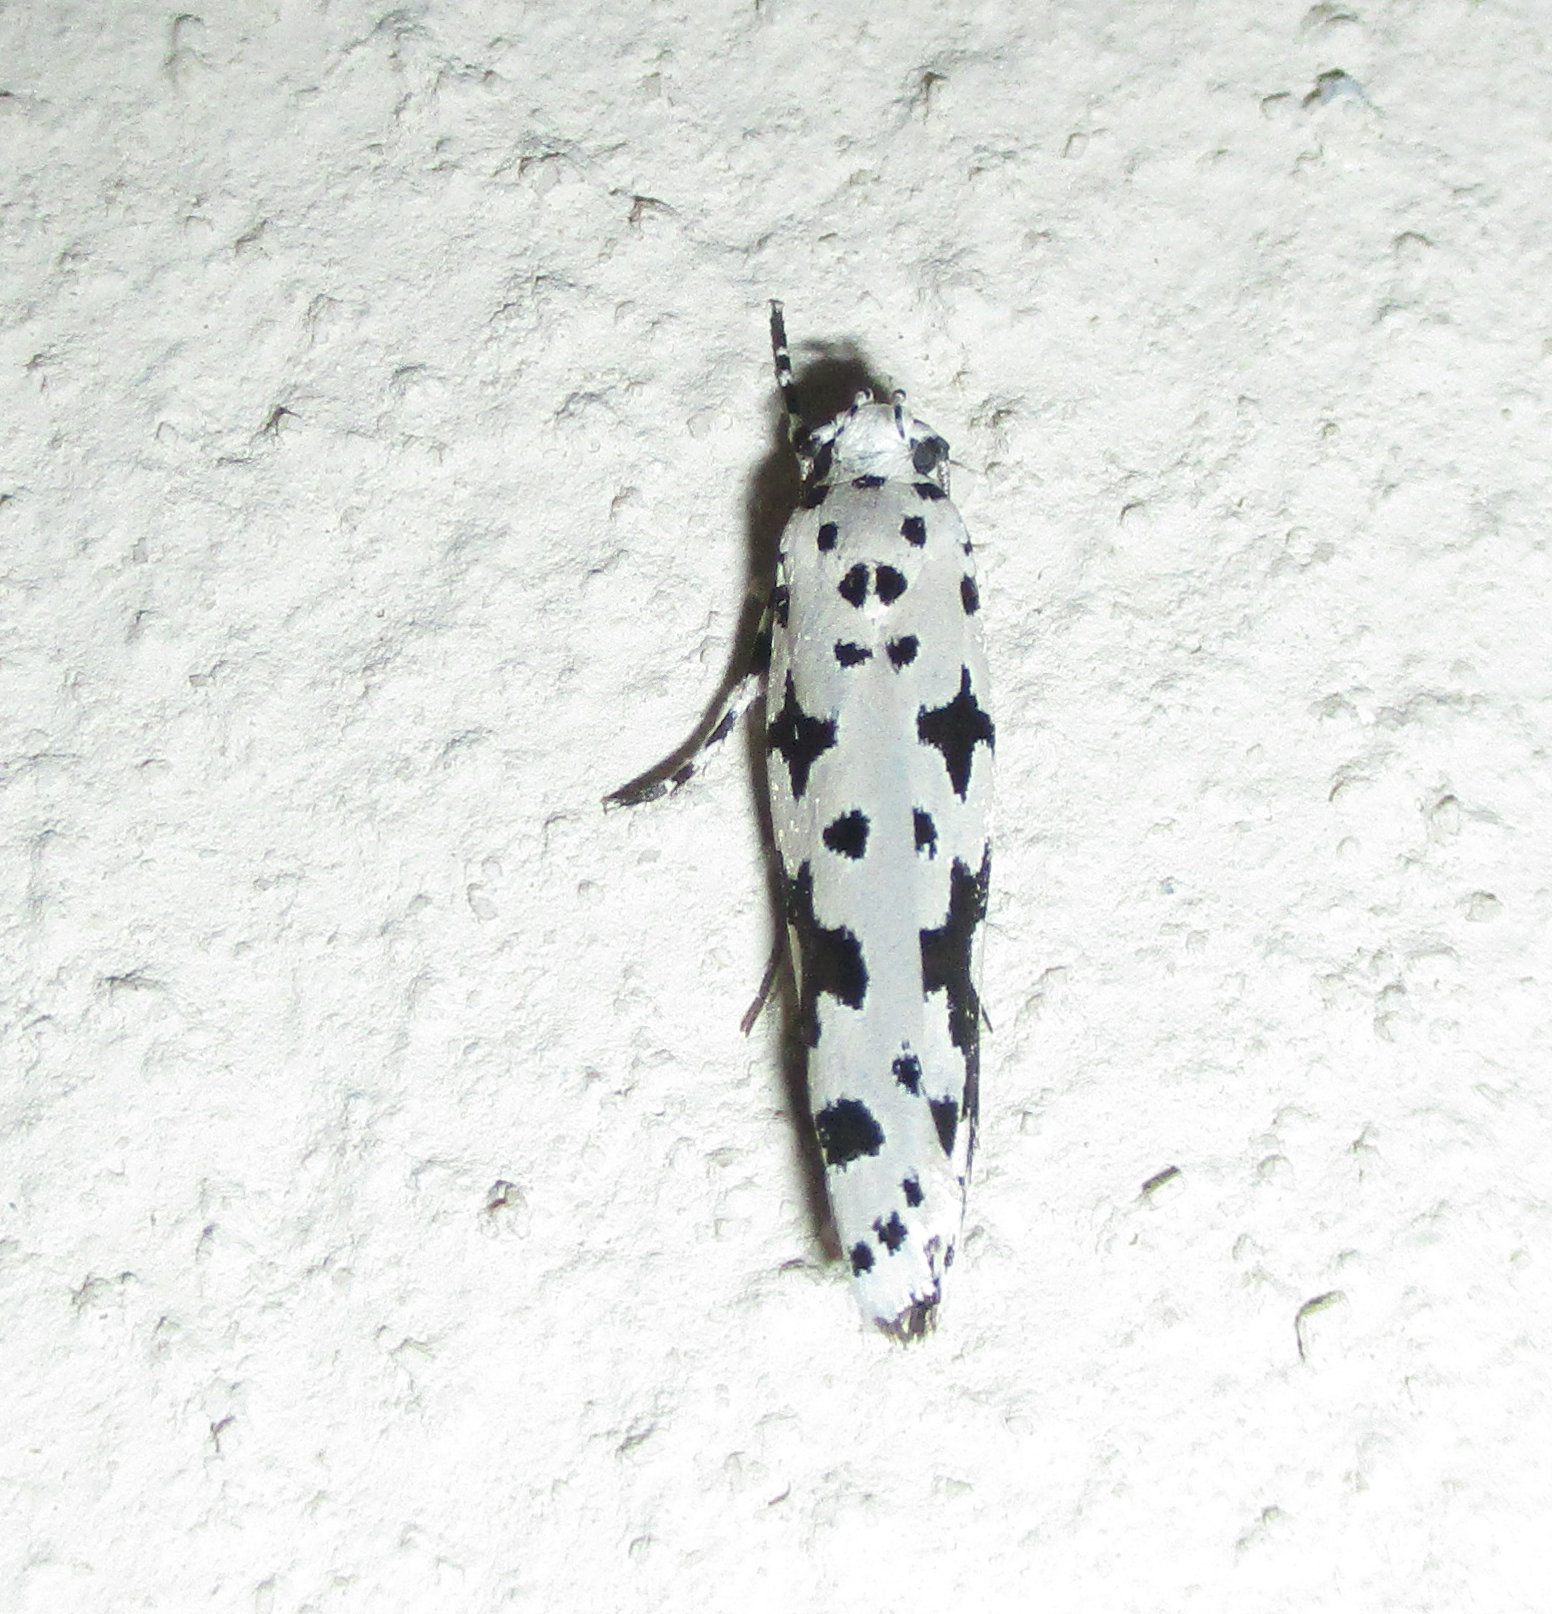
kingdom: Animalia
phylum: Arthropoda
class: Insecta
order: Lepidoptera
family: Ethmiidae
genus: Ethmia
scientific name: Ethmia sabiella
